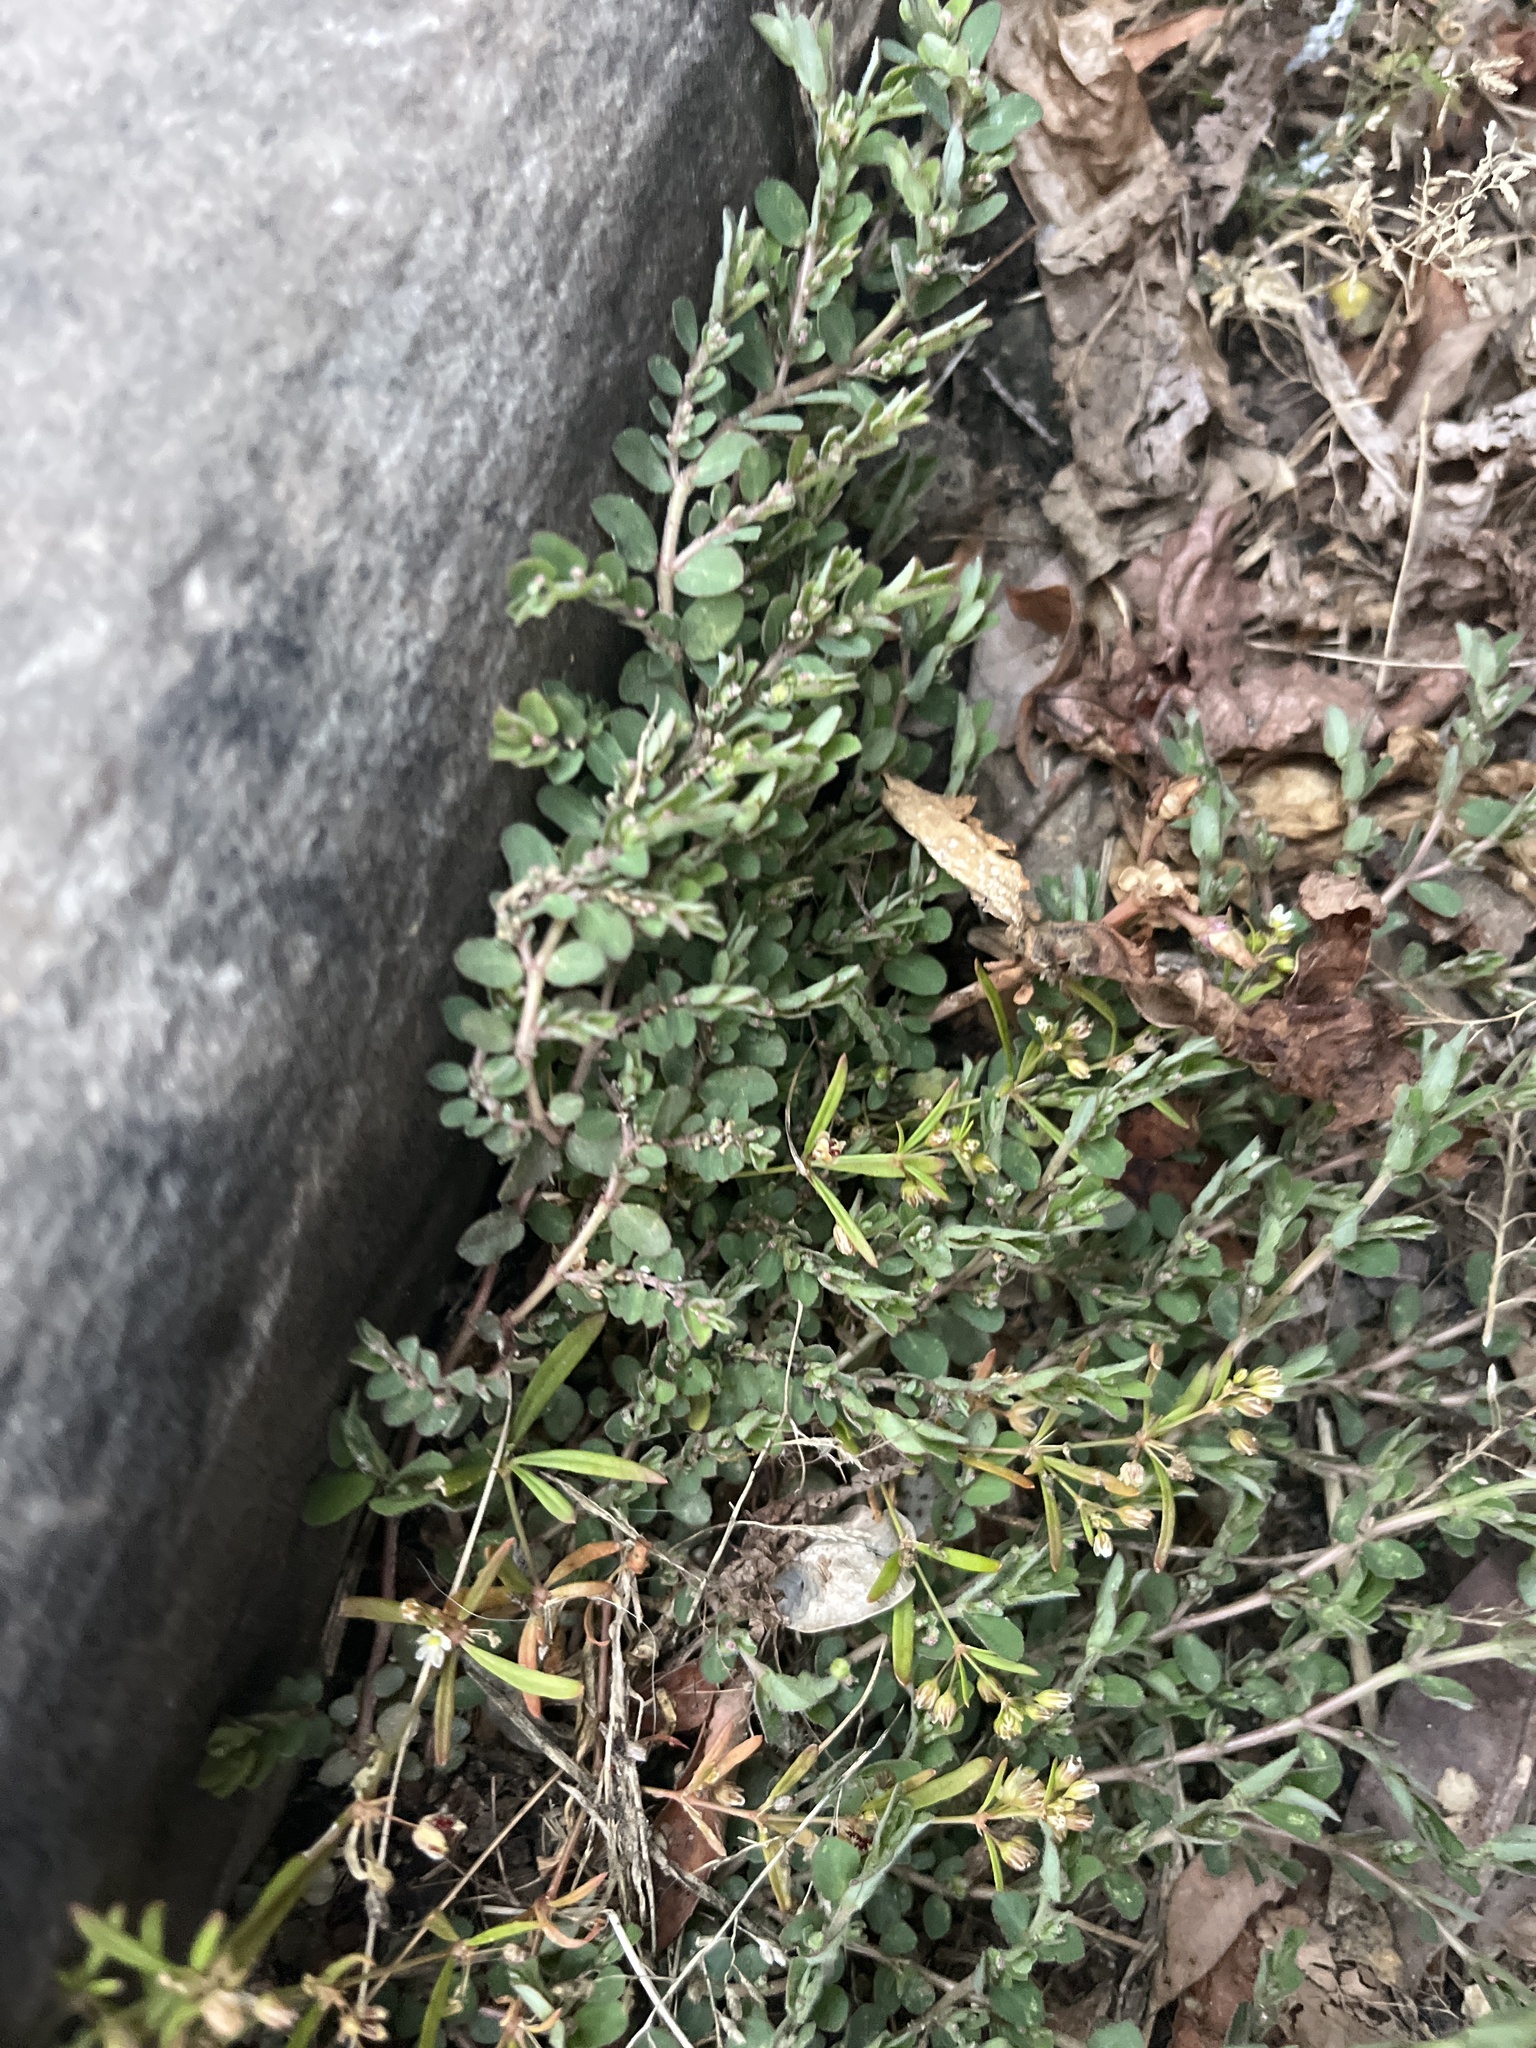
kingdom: Plantae
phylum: Tracheophyta
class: Magnoliopsida
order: Malpighiales
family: Euphorbiaceae
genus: Euphorbia
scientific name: Euphorbia prostrata
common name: Prostrate sandmat
